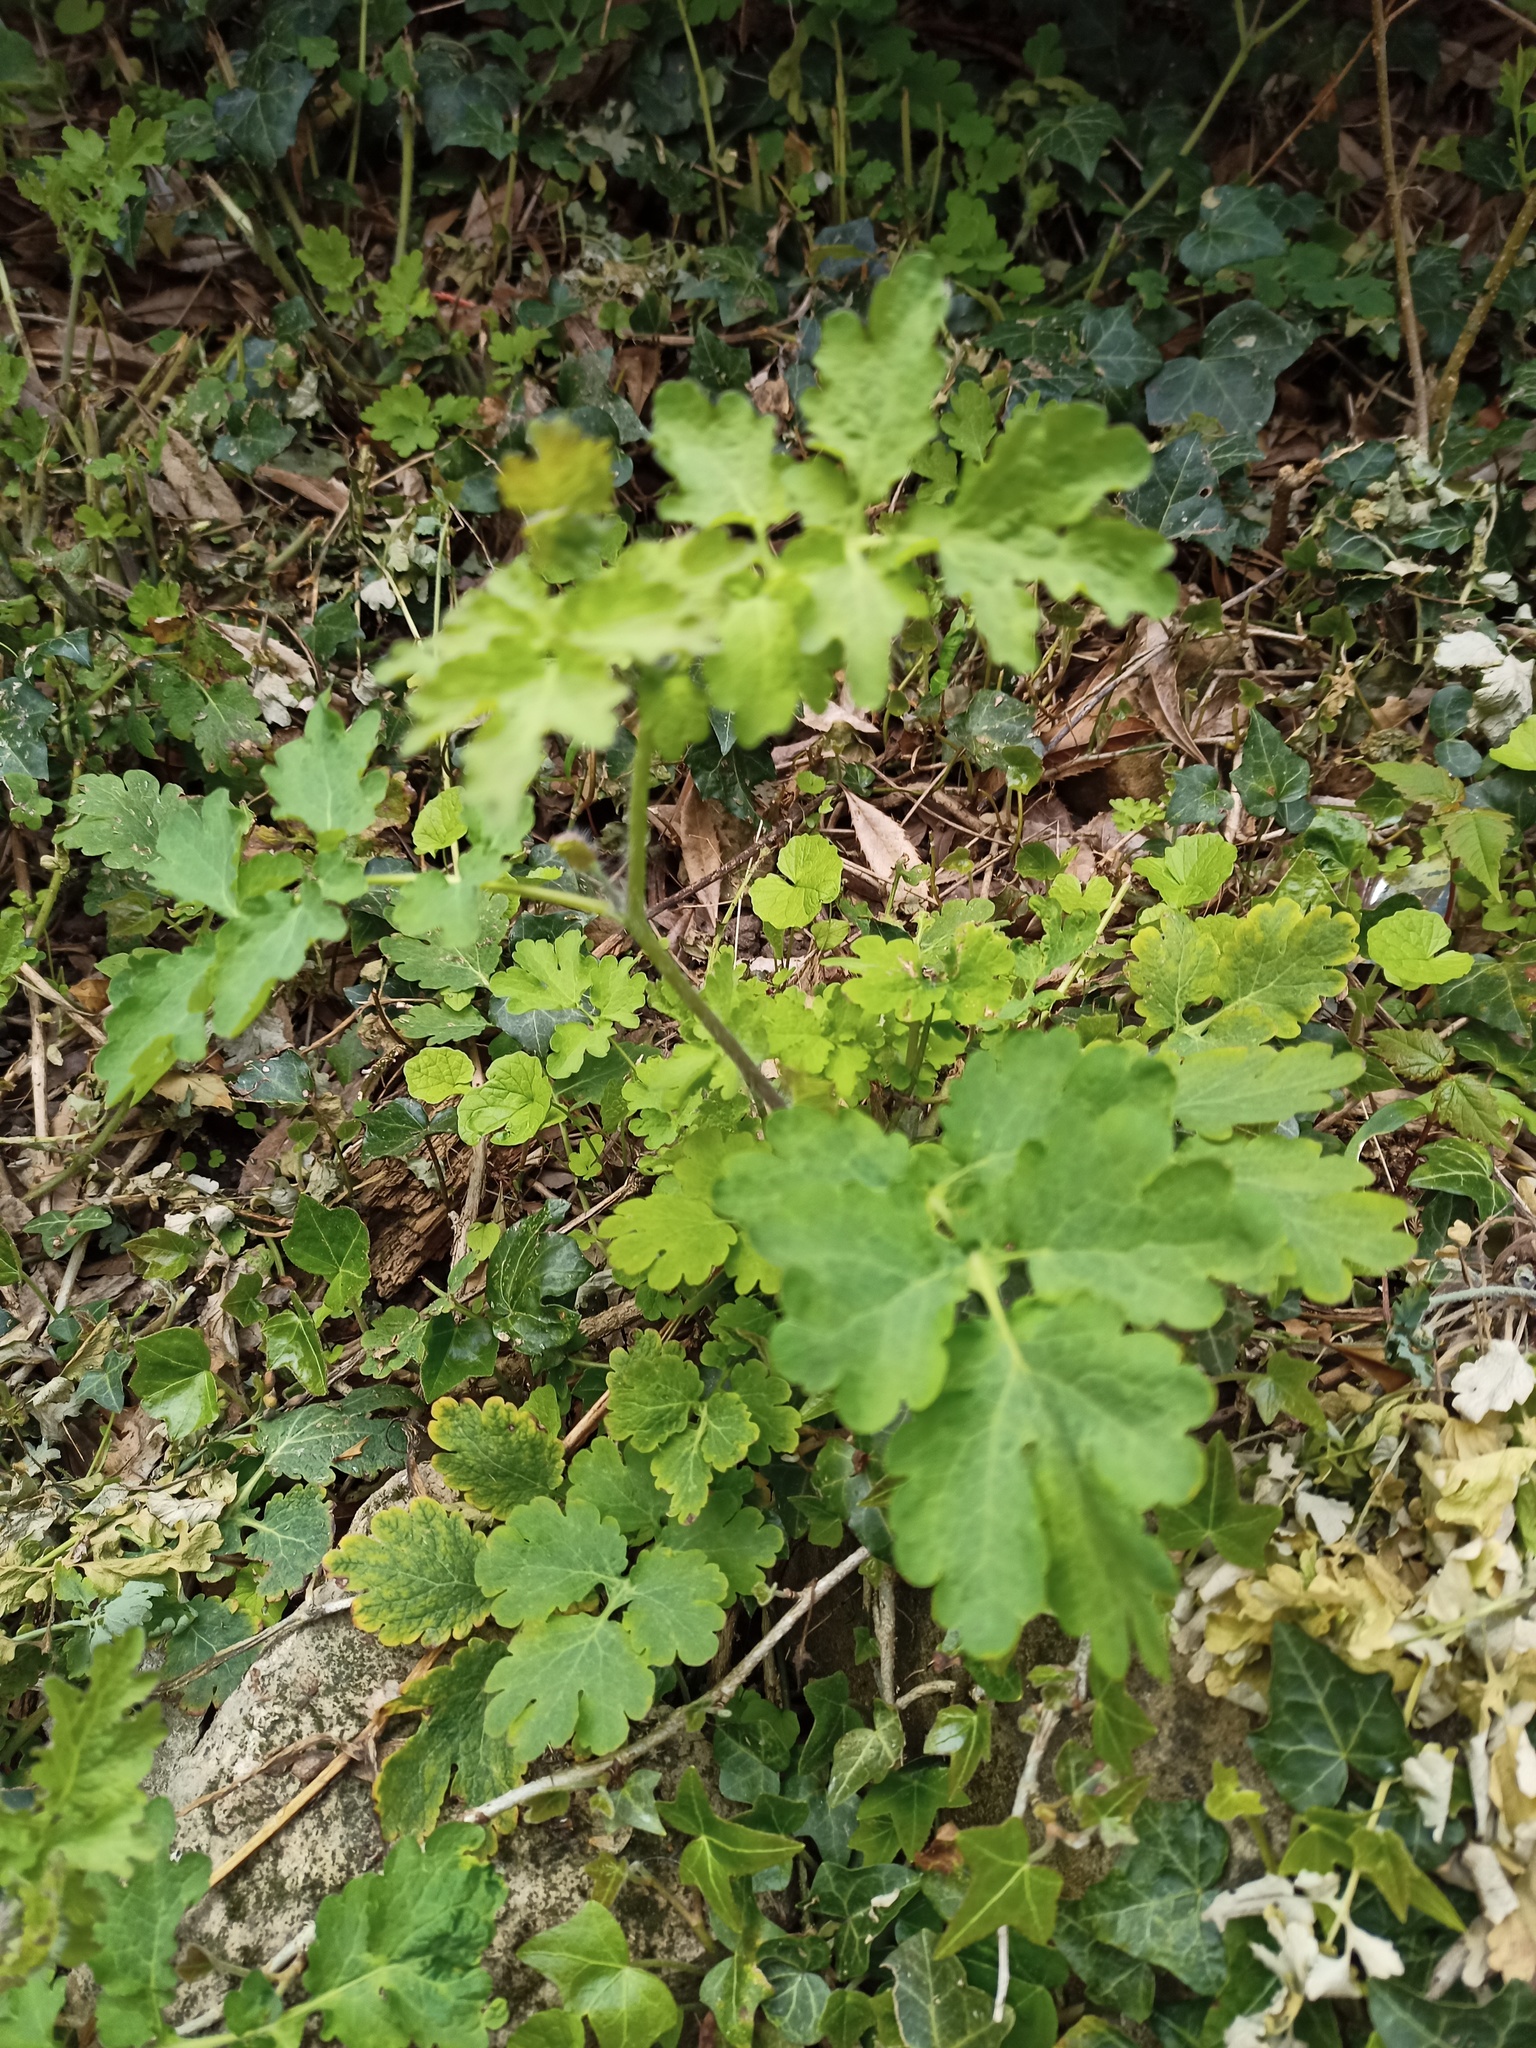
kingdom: Plantae
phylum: Tracheophyta
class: Magnoliopsida
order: Ranunculales
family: Papaveraceae
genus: Chelidonium
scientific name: Chelidonium majus
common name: Greater celandine
